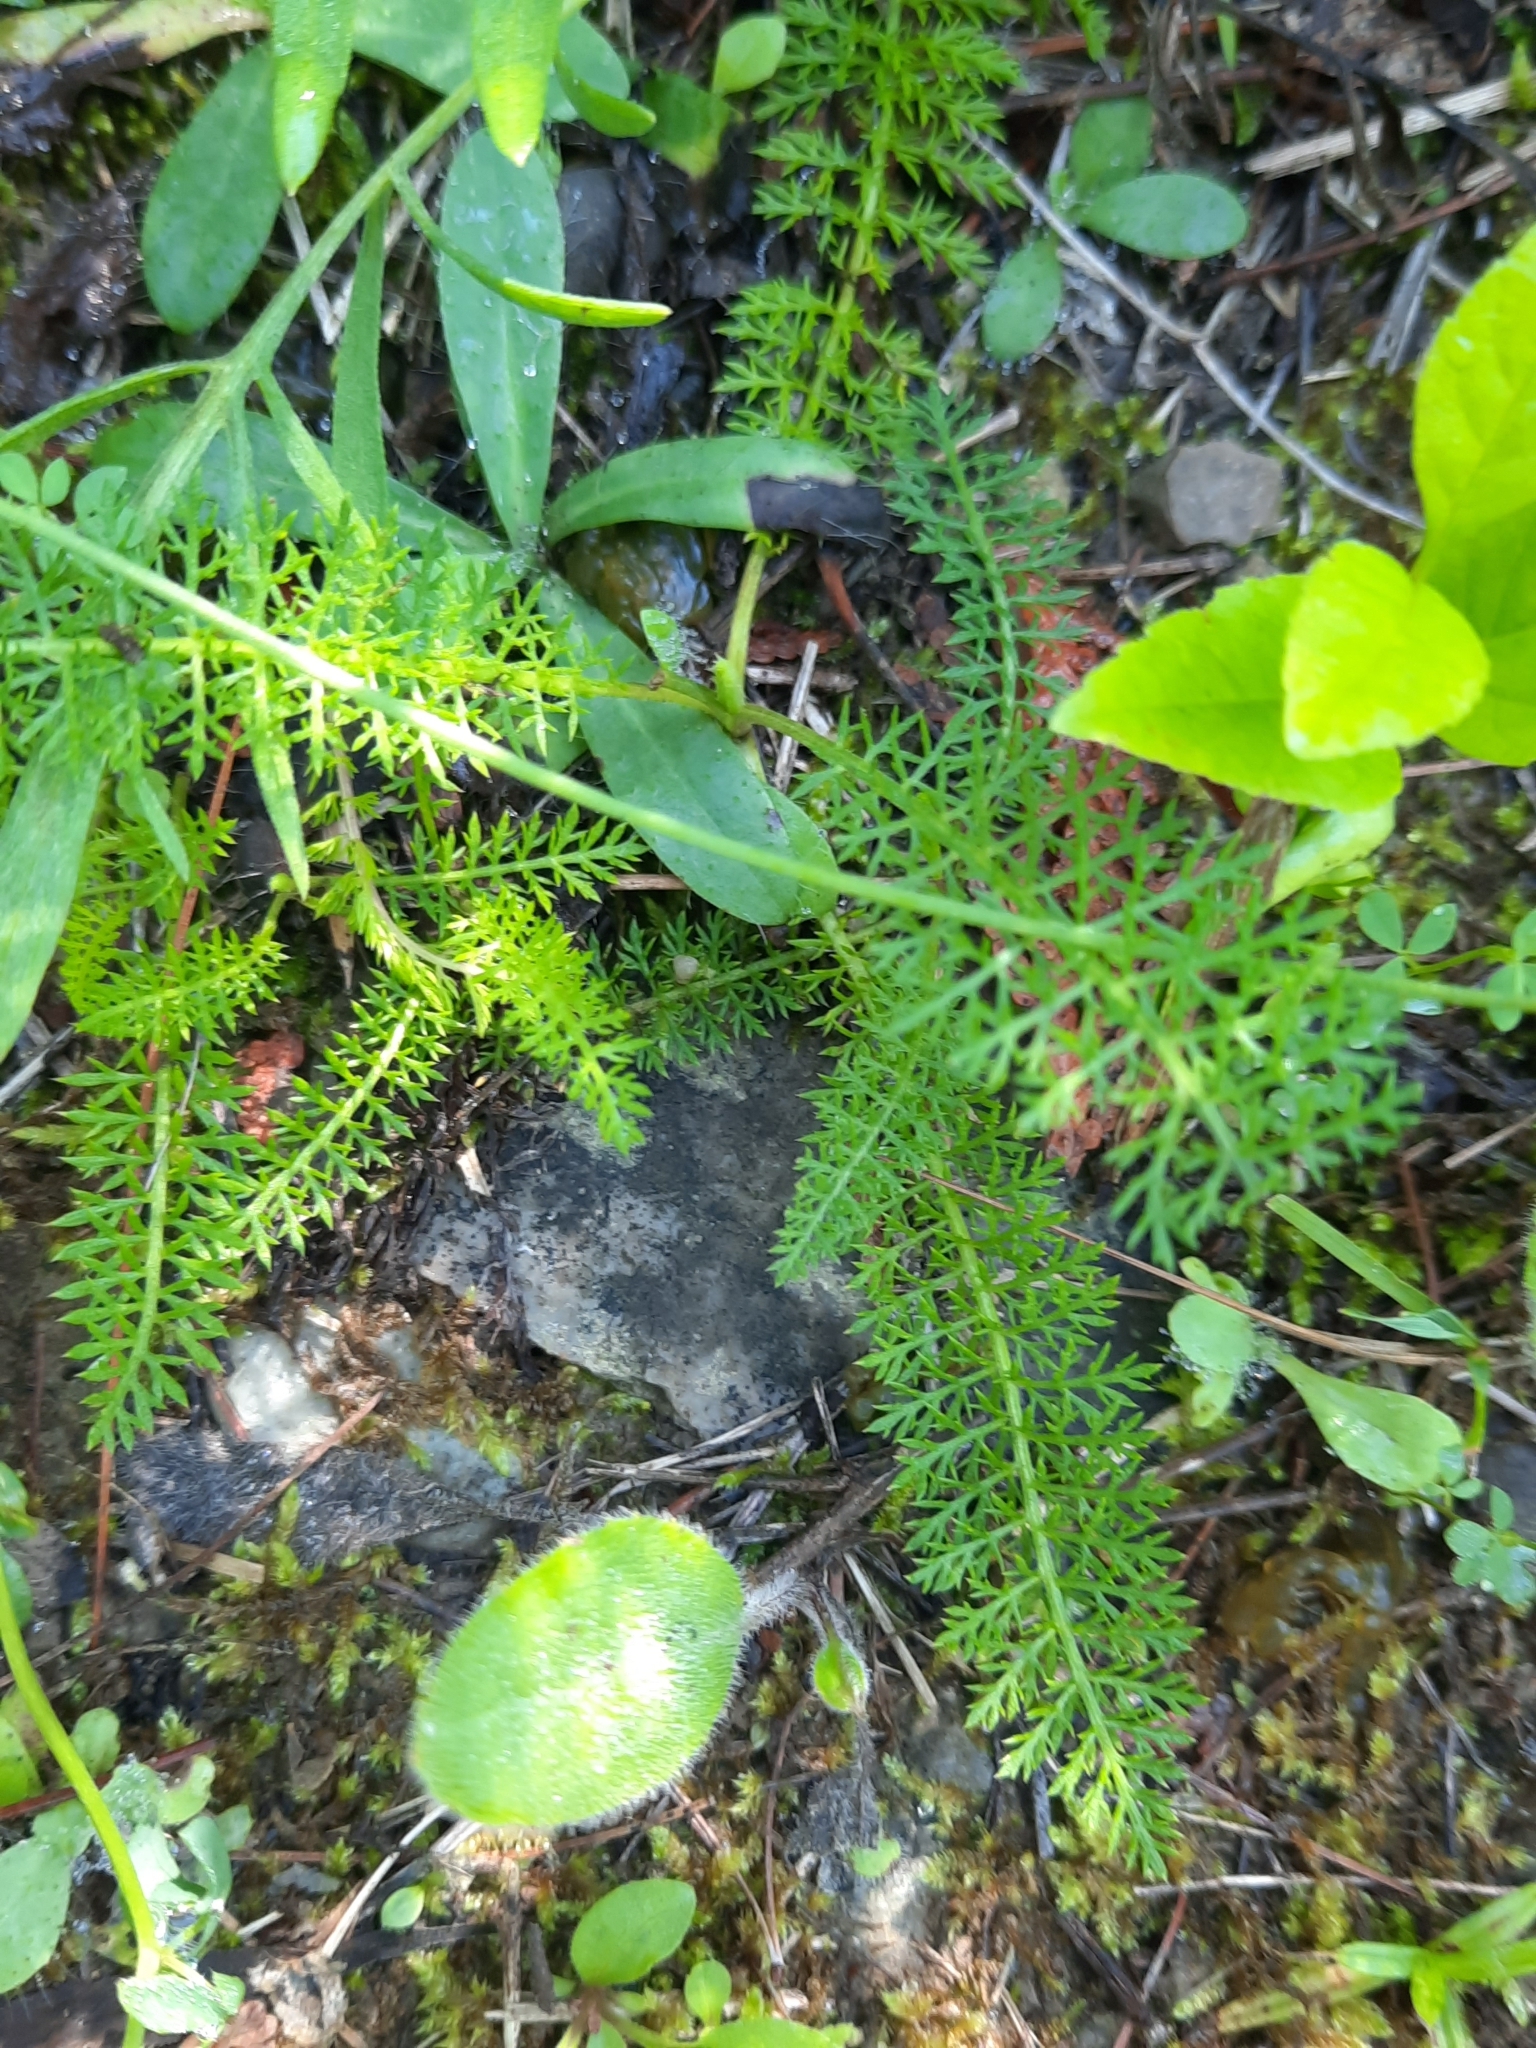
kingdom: Plantae
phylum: Tracheophyta
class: Magnoliopsida
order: Asterales
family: Asteraceae
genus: Achillea
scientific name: Achillea millefolium
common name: Yarrow
